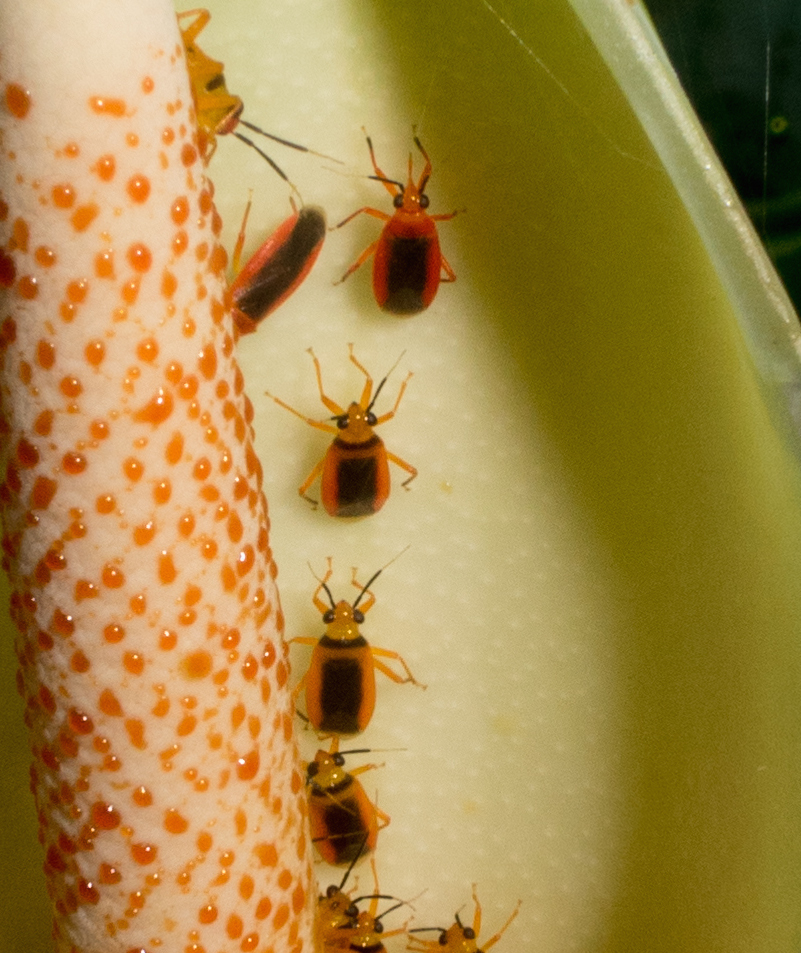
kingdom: Animalia
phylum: Arthropoda
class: Insecta
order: Hemiptera
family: Miridae
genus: Neella
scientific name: Neella fasciata
